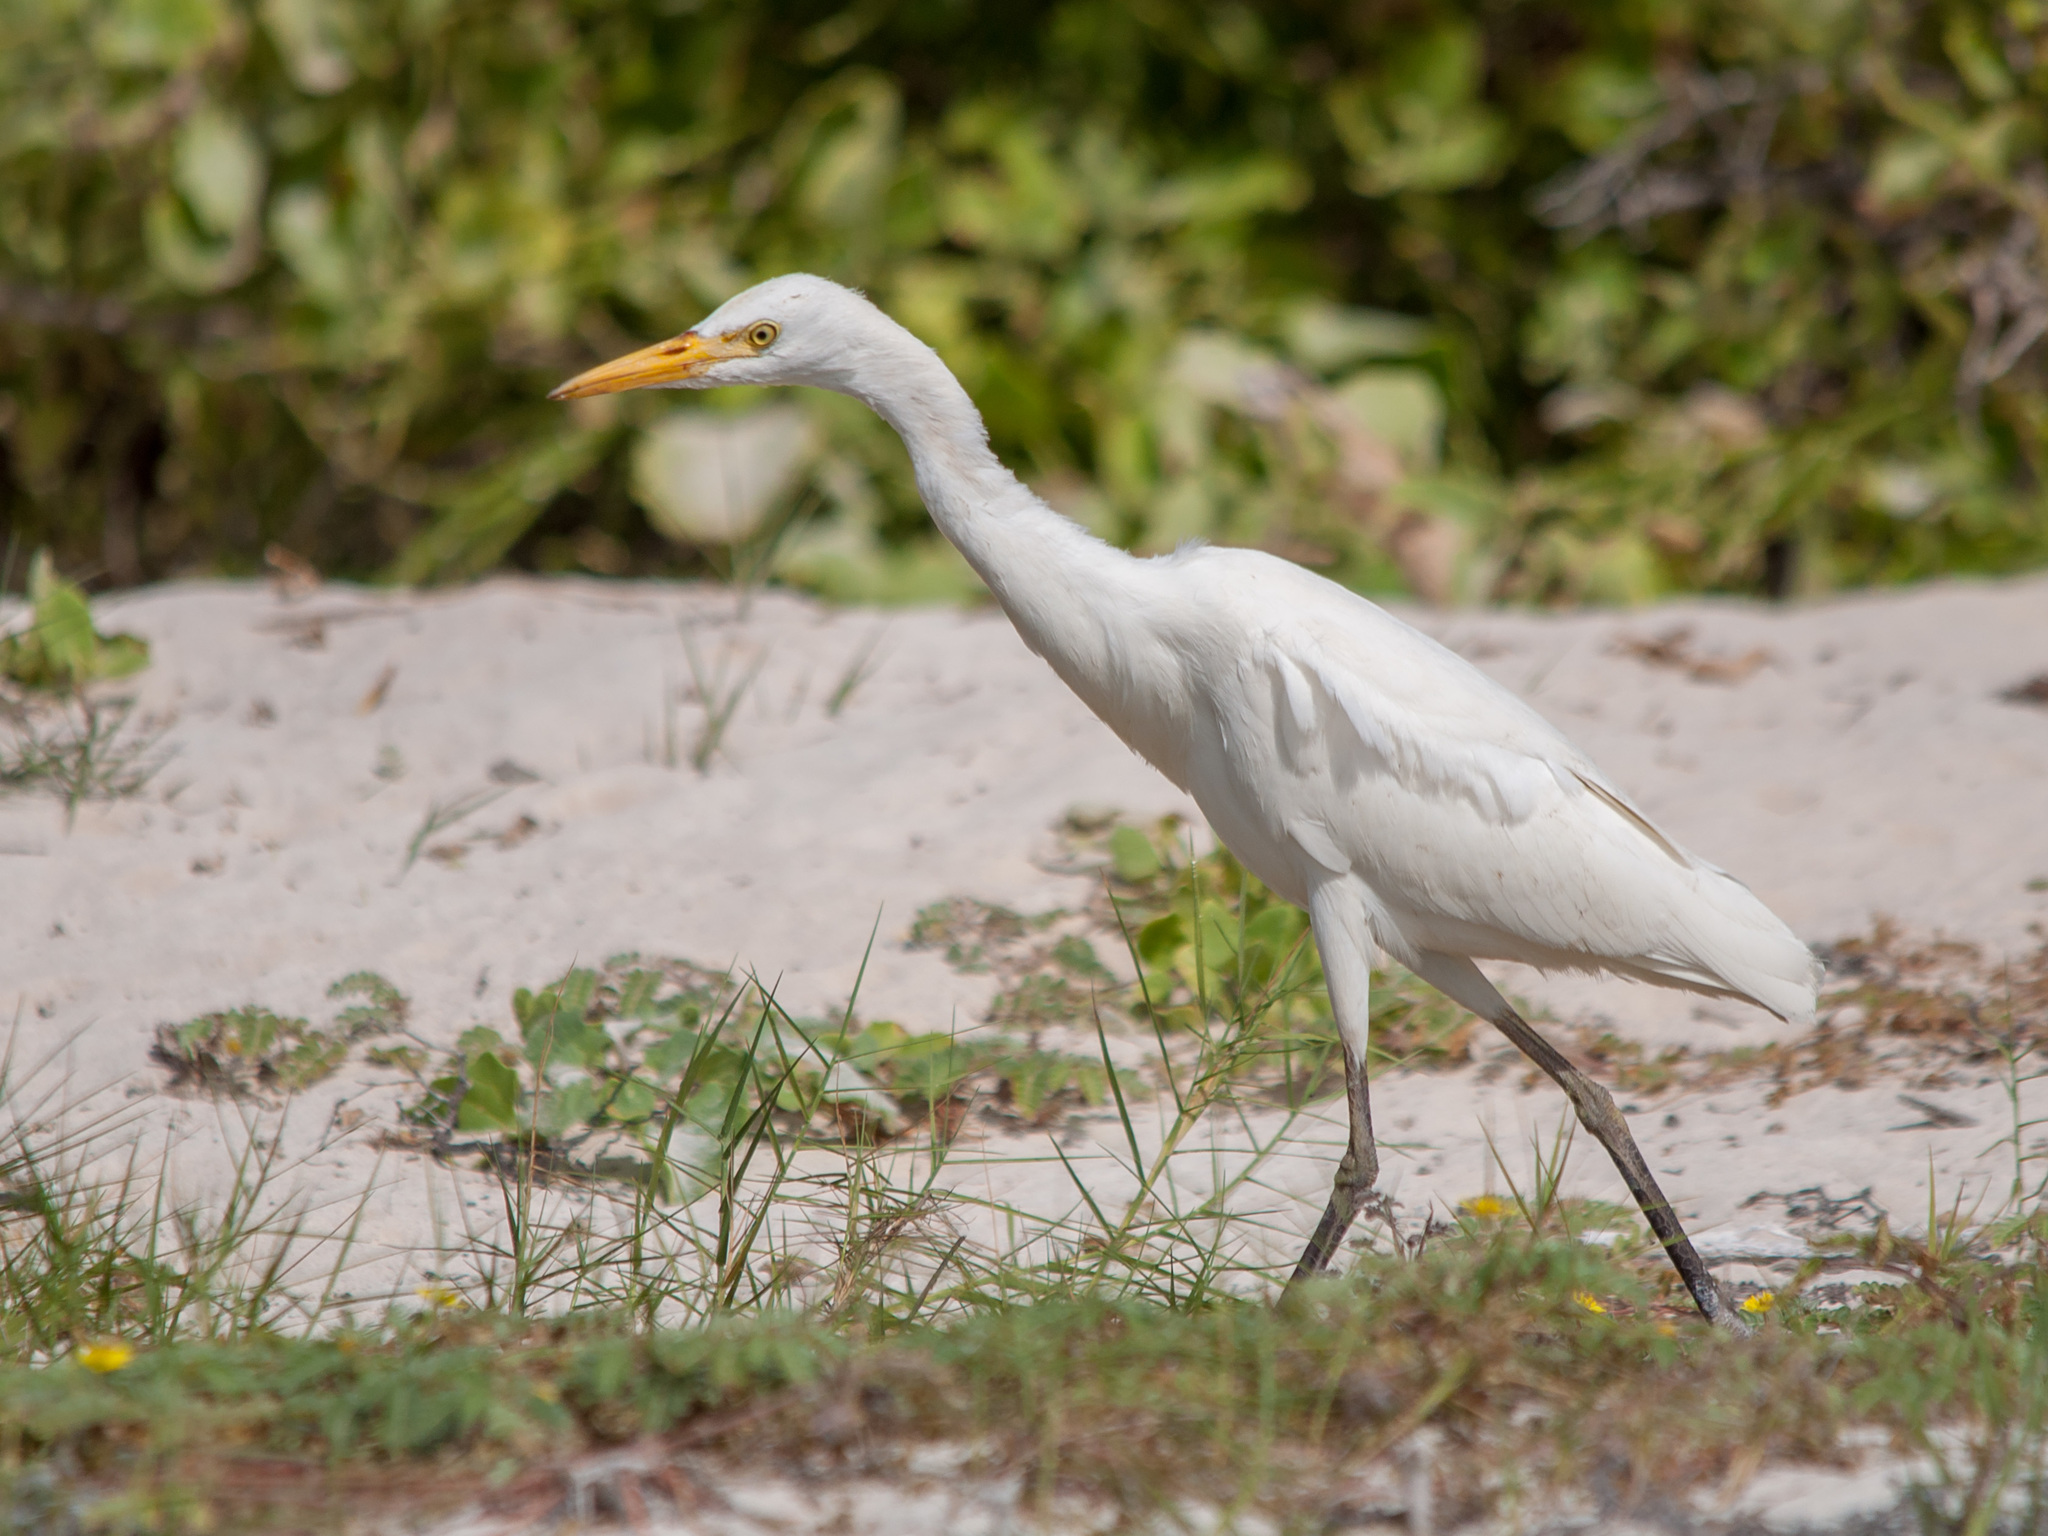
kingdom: Animalia
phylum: Chordata
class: Aves
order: Pelecaniformes
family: Ardeidae
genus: Bubulcus
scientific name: Bubulcus ibis
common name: Cattle egret
